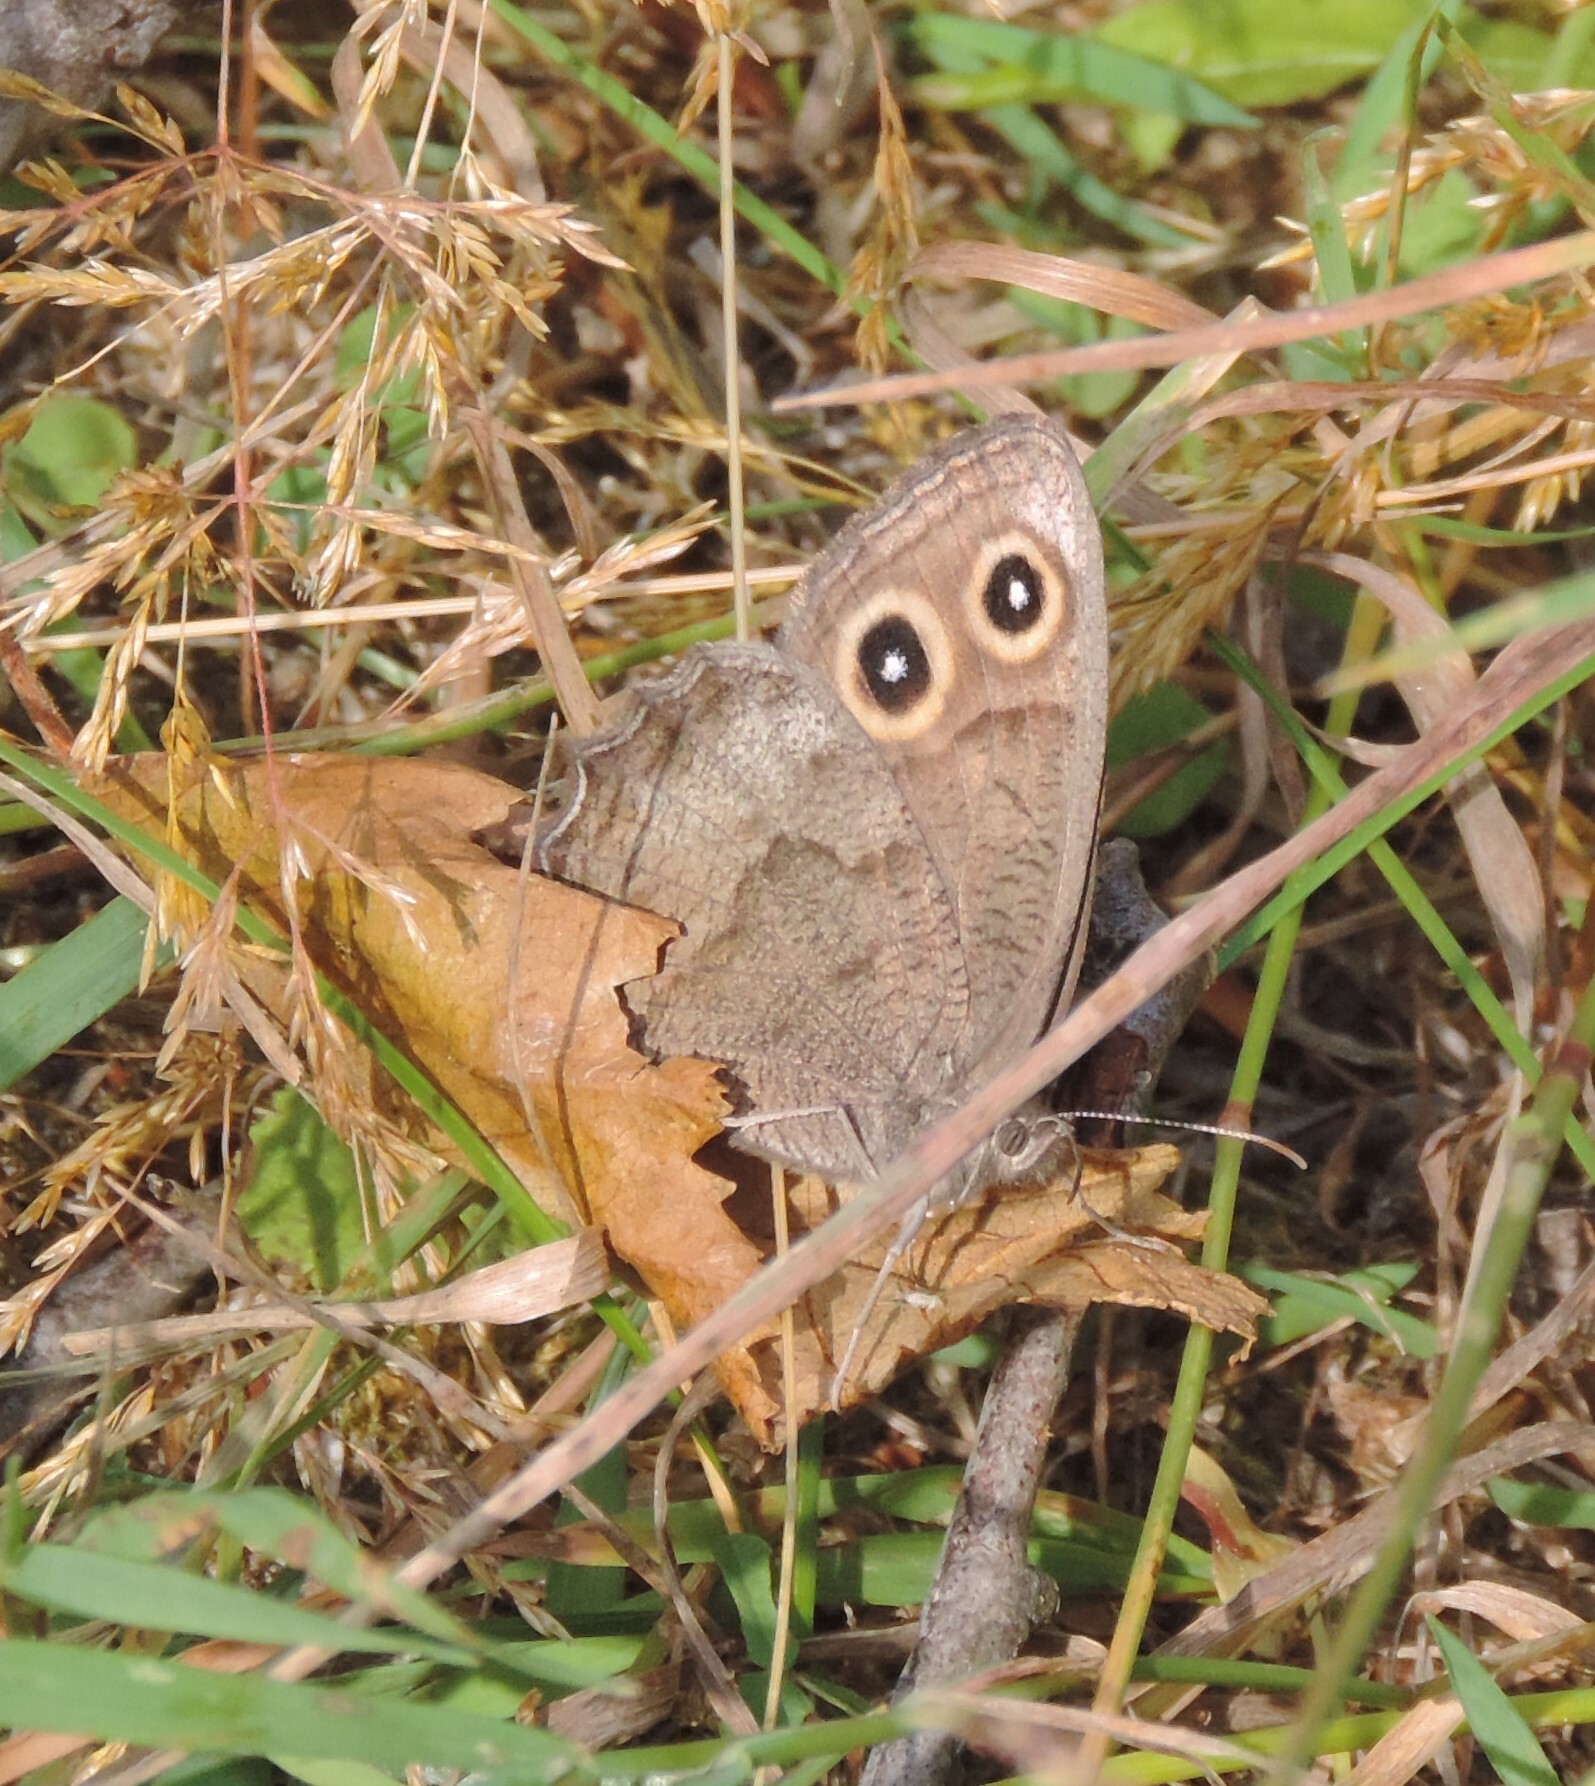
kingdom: Animalia
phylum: Arthropoda
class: Insecta
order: Lepidoptera
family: Nymphalidae
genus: Cercyonis
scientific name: Cercyonis pegala
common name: Common wood-nymph
